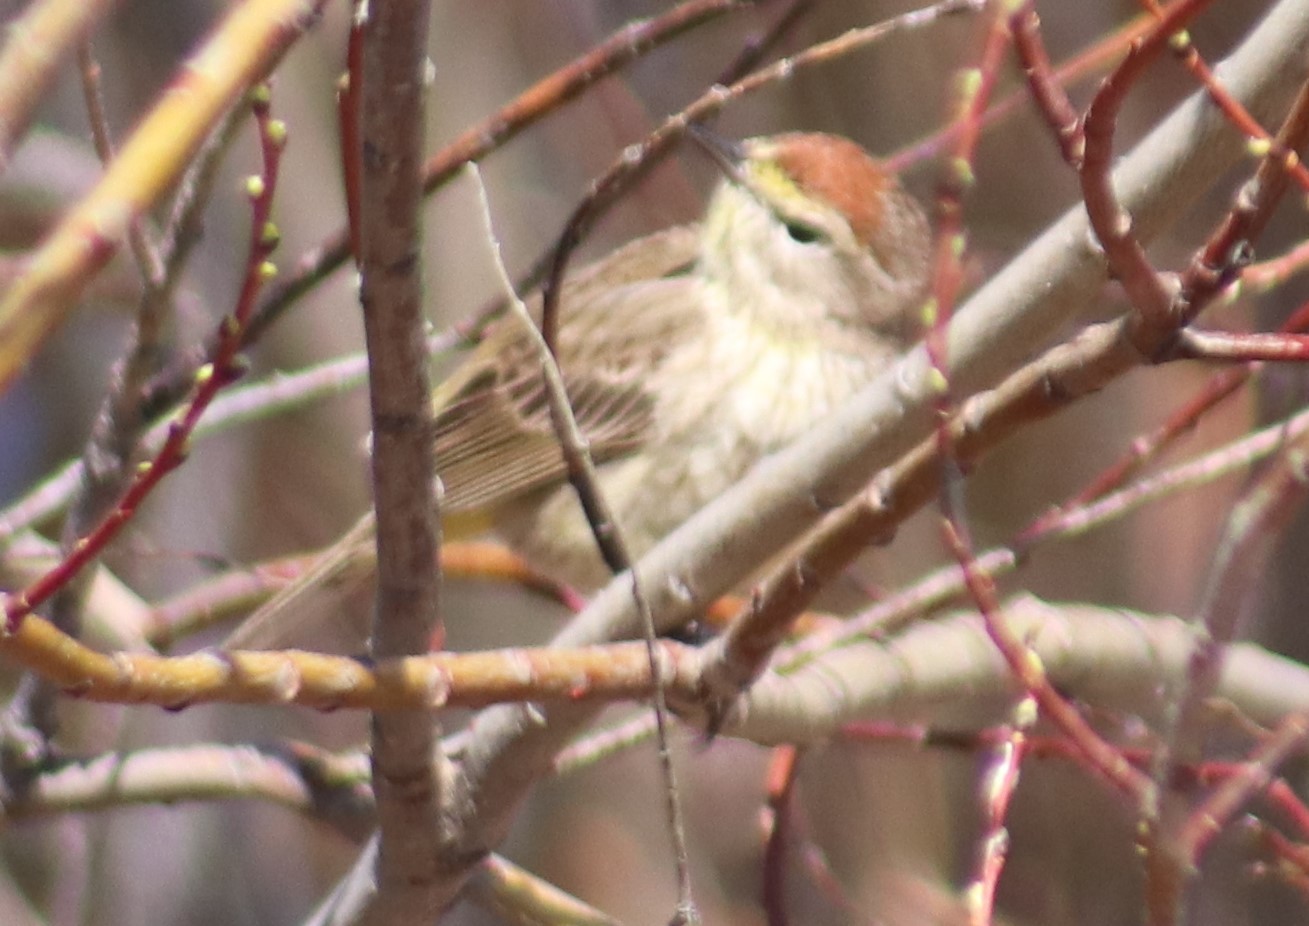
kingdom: Animalia
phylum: Chordata
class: Aves
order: Passeriformes
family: Parulidae
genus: Setophaga
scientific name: Setophaga palmarum
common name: Palm warbler
